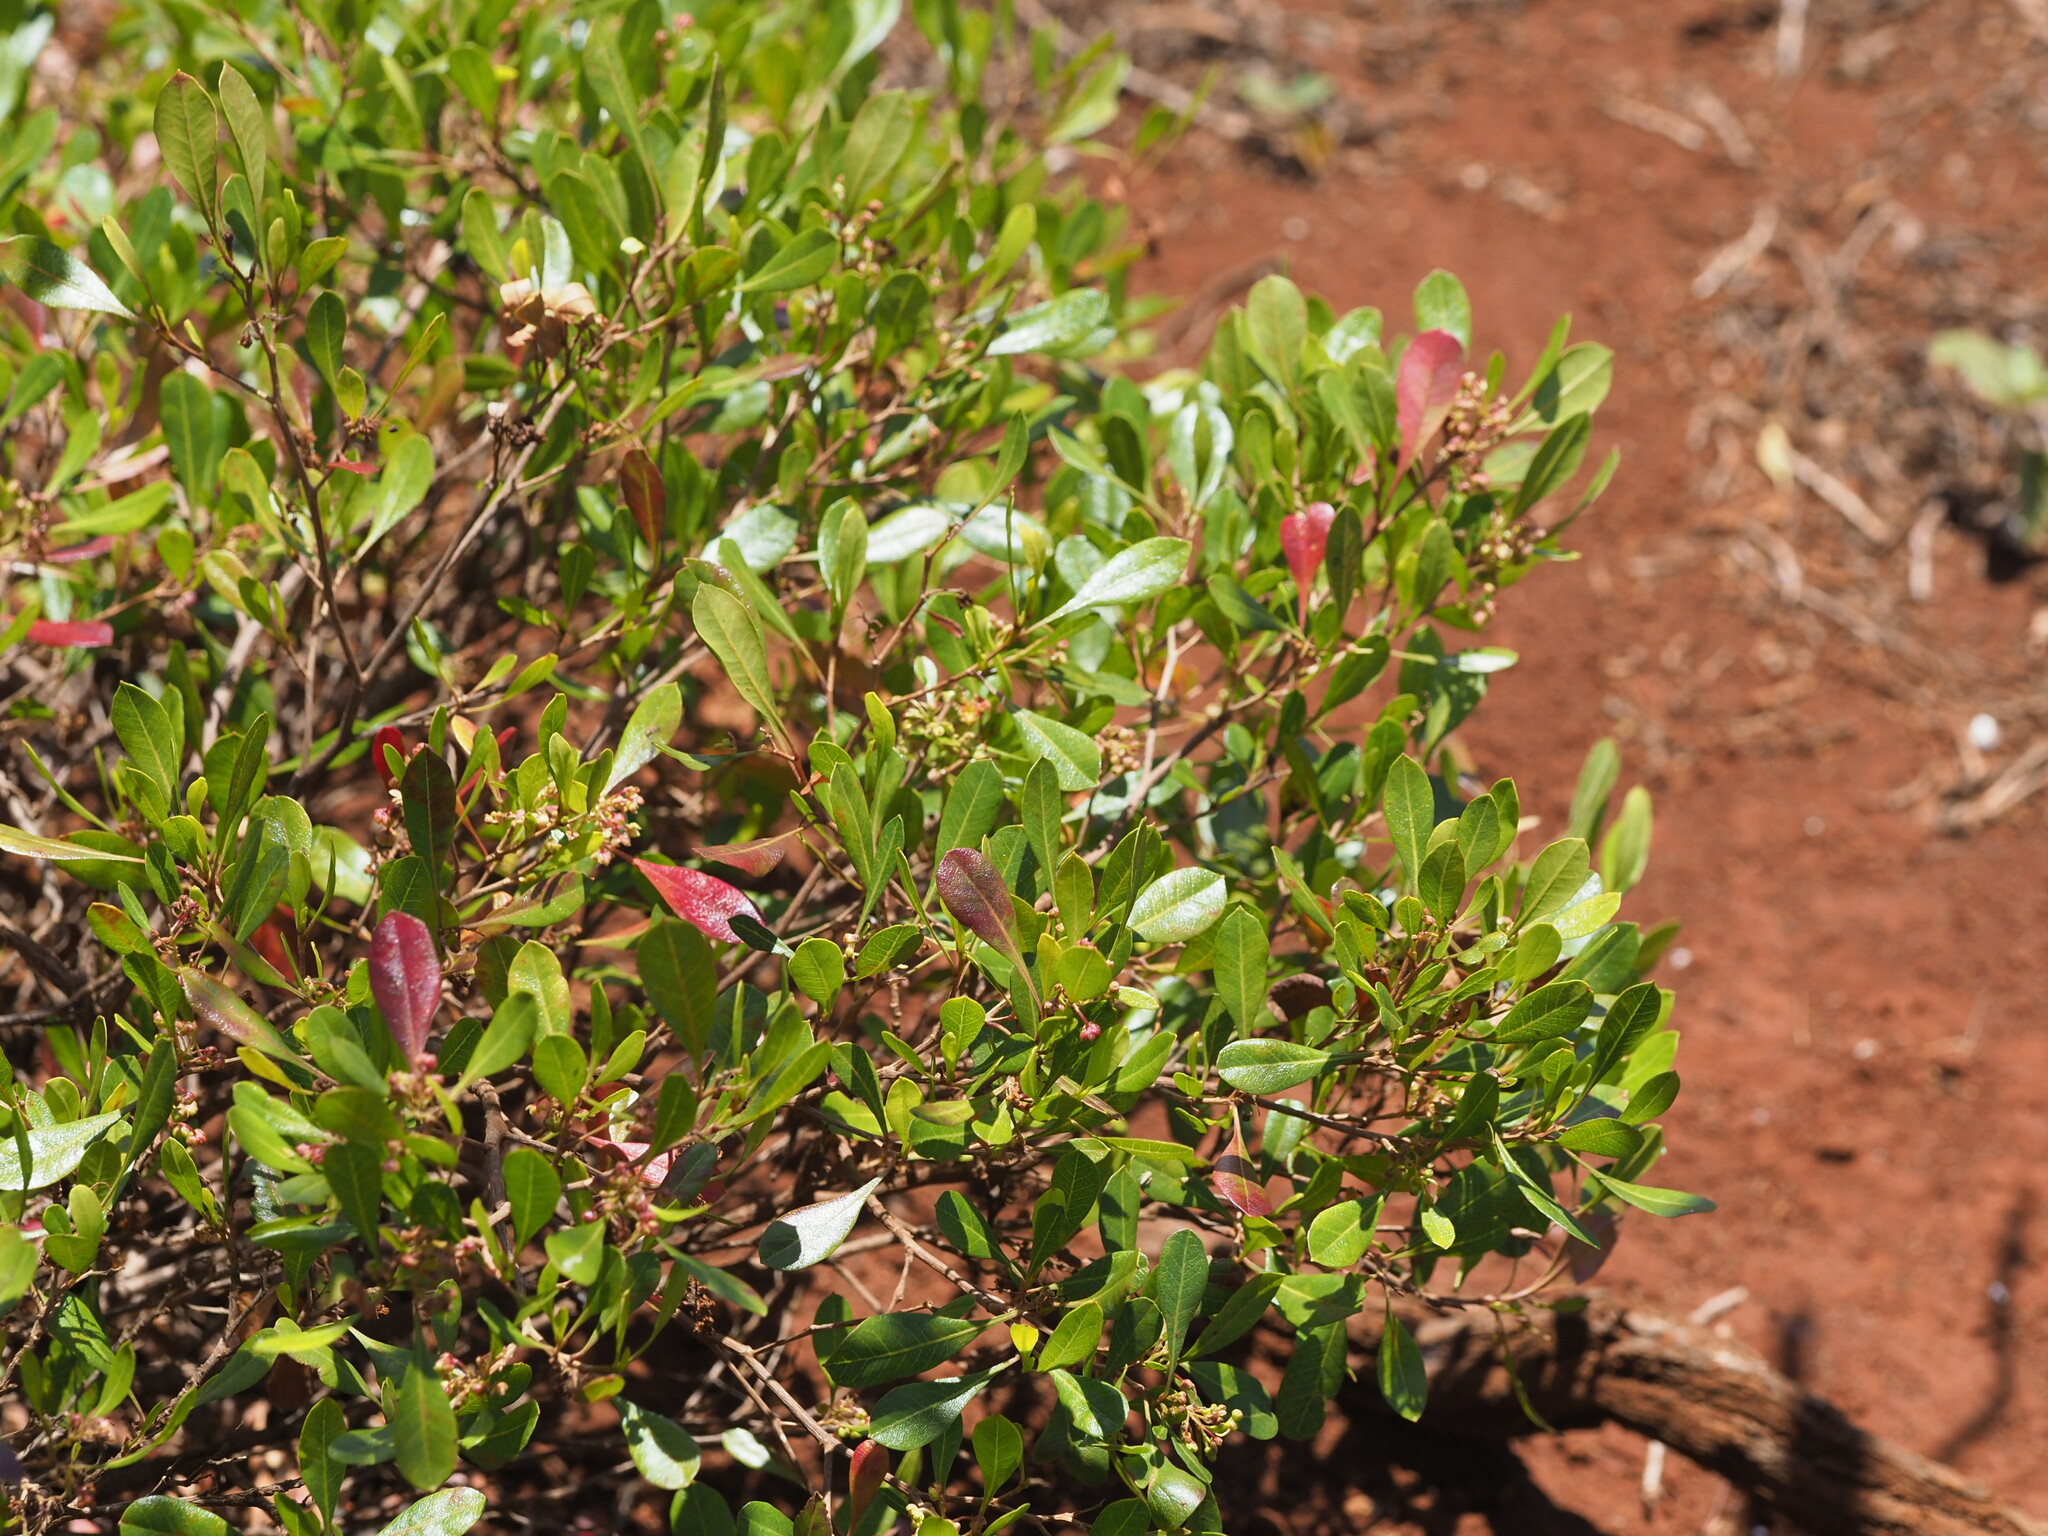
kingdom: Plantae
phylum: Tracheophyta
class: Magnoliopsida
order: Sapindales
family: Sapindaceae
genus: Dodonaea
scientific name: Dodonaea viscosa
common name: Hopbush
